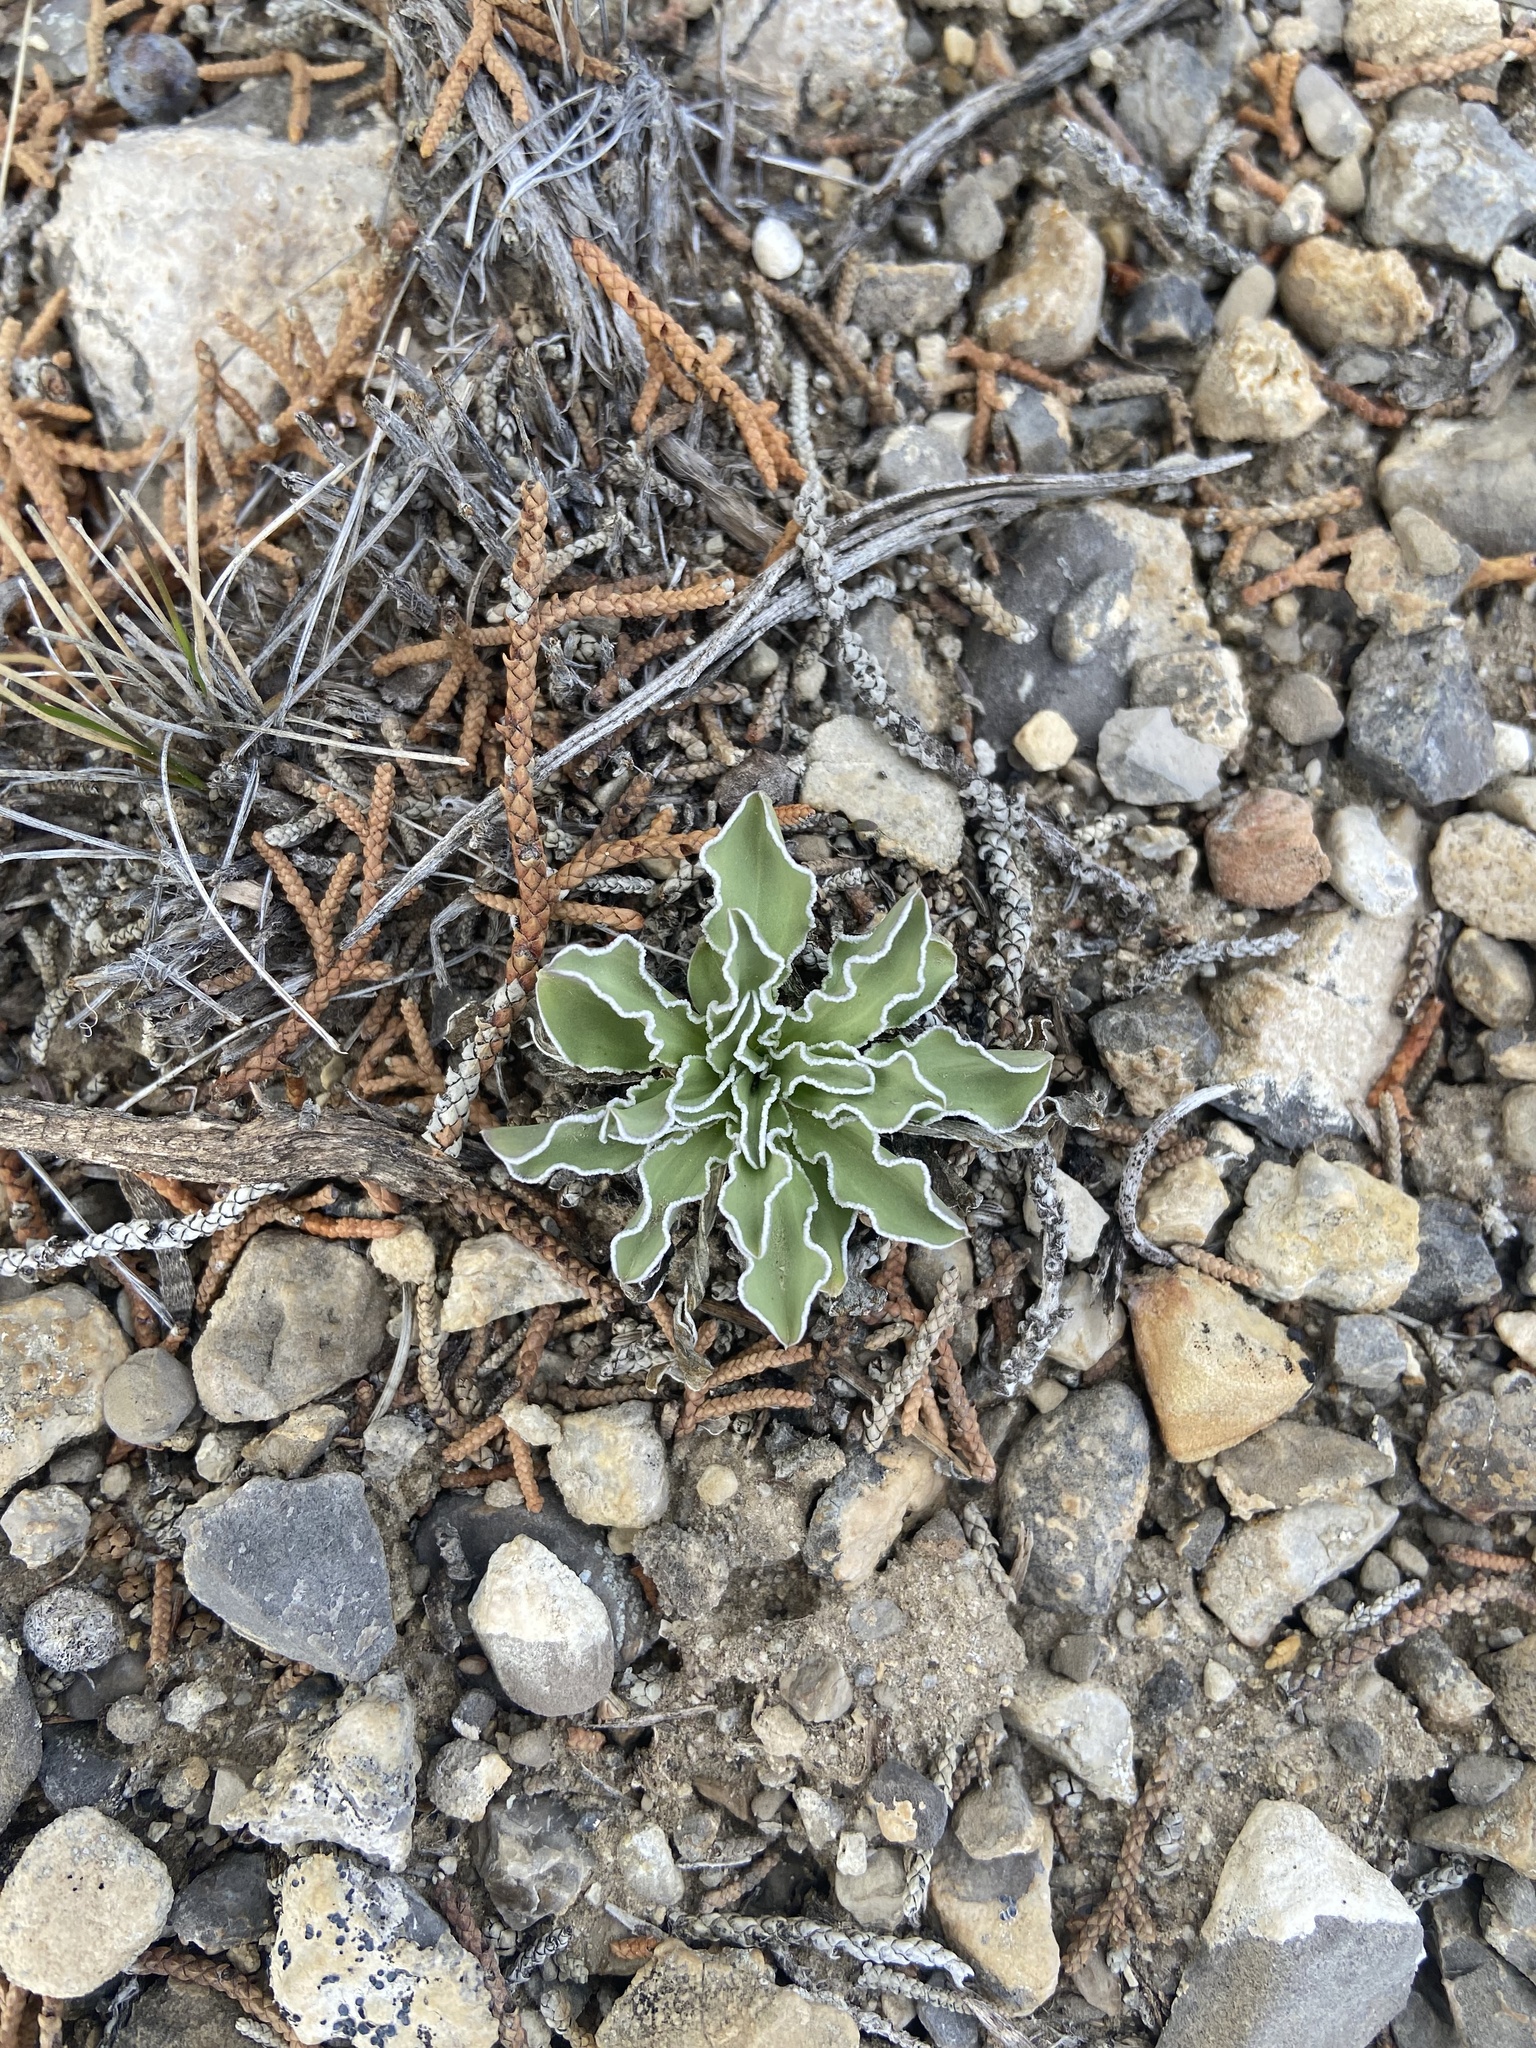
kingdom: Plantae
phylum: Tracheophyta
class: Magnoliopsida
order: Gentianales
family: Gentianaceae
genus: Frasera
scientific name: Frasera albomarginata
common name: Desert frasera
